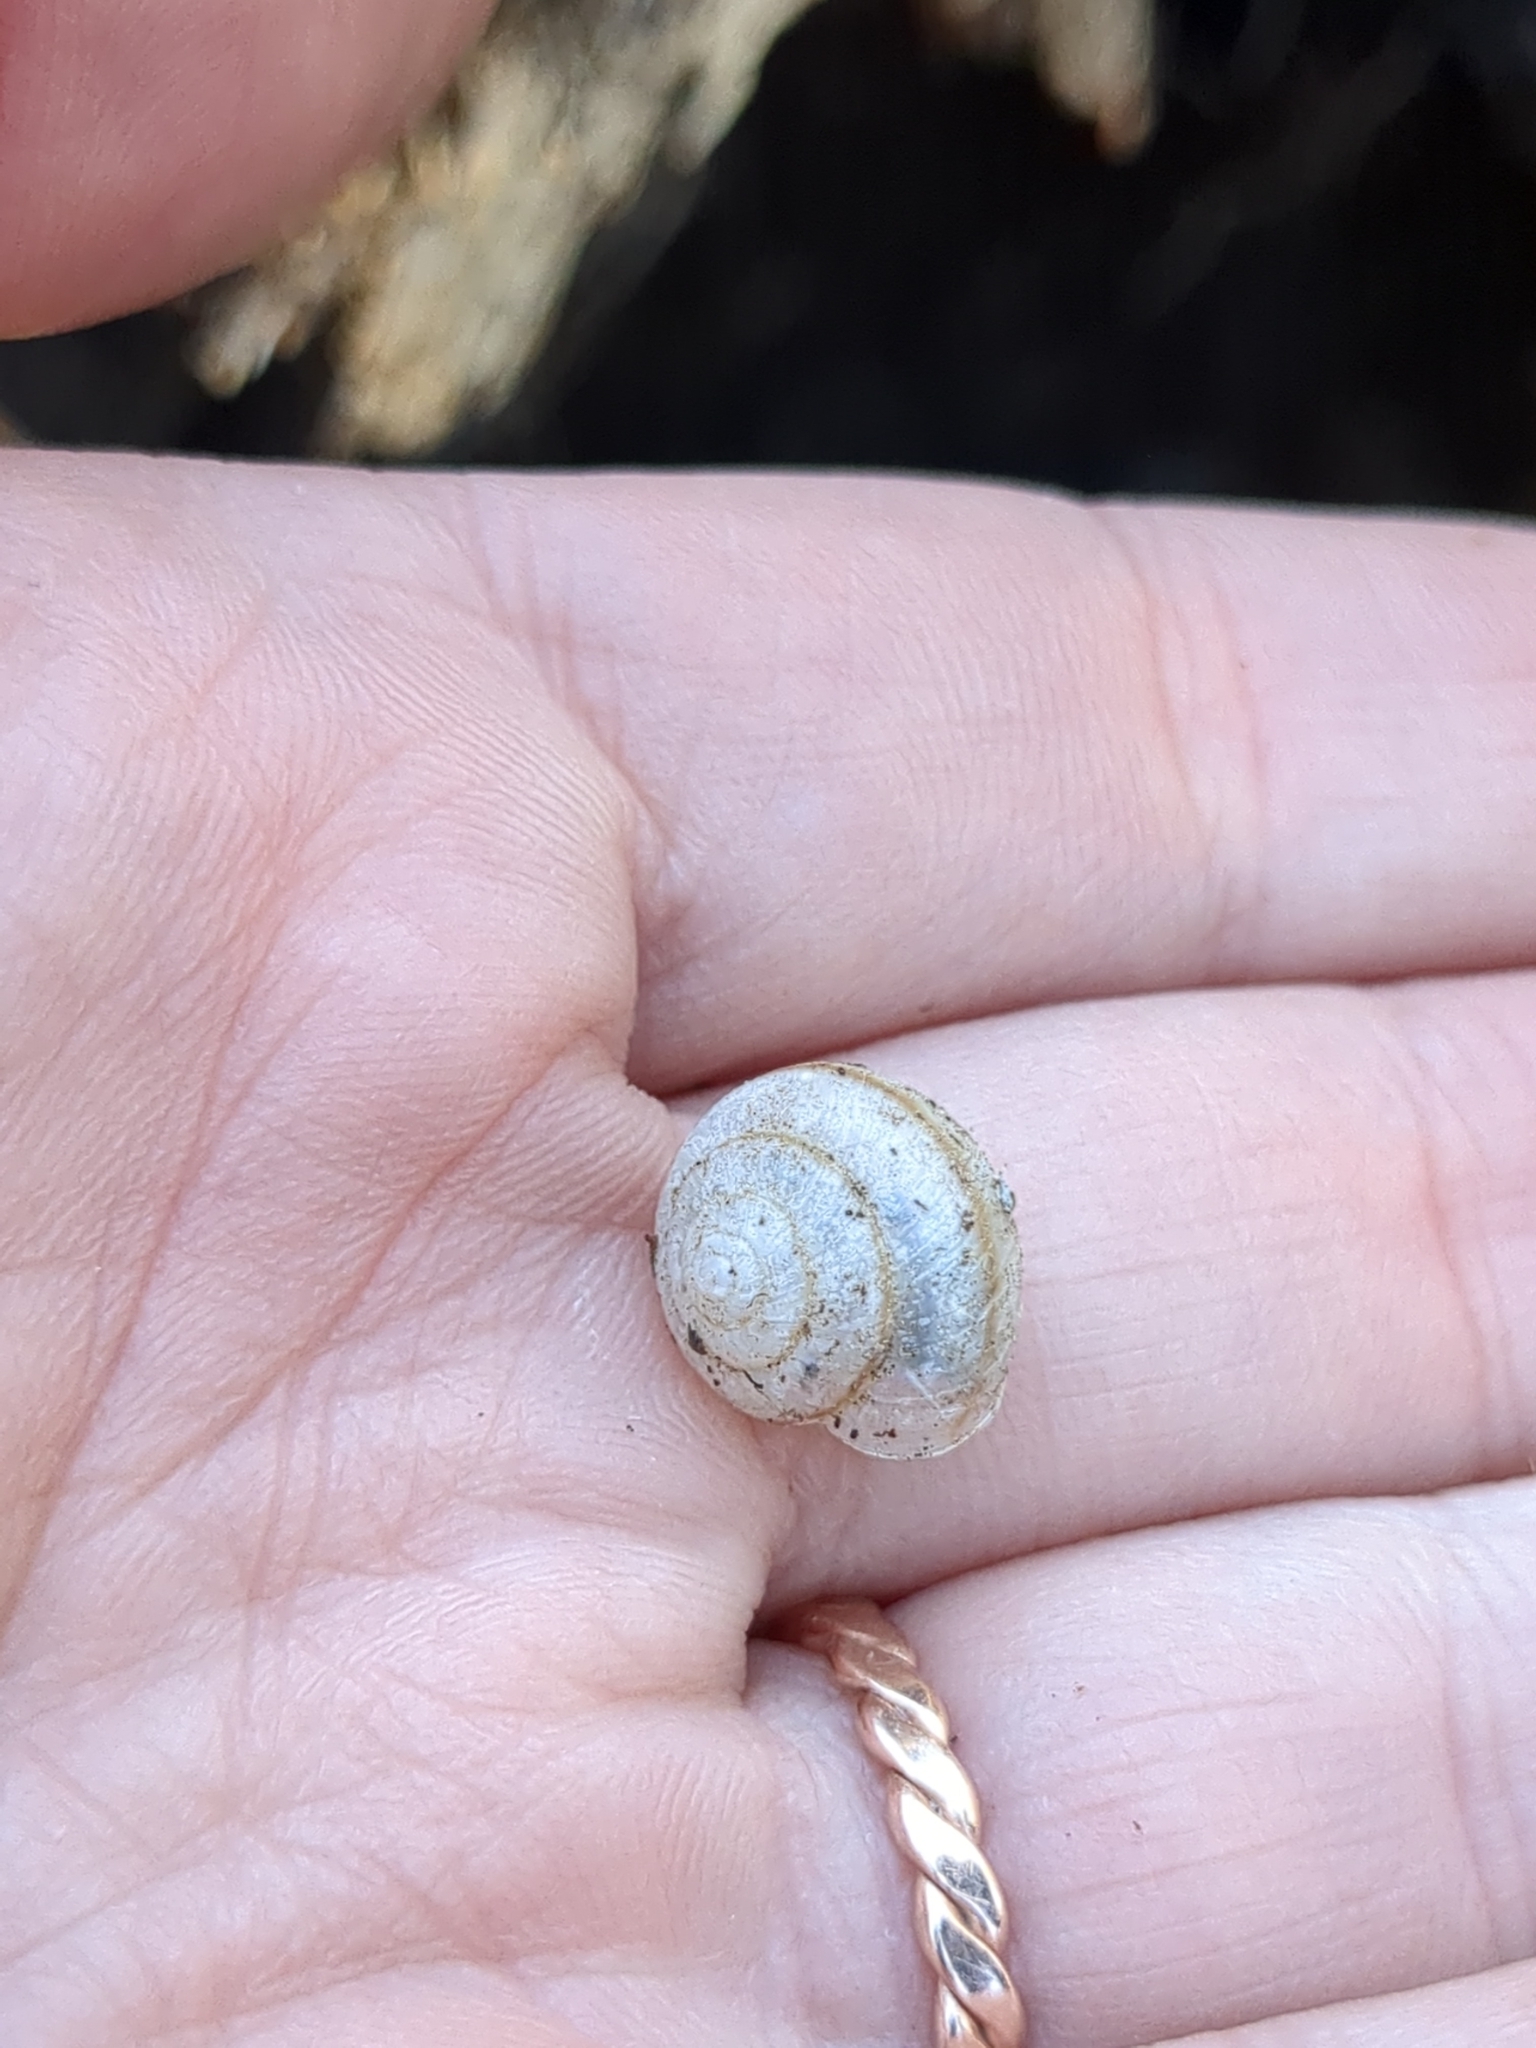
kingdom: Animalia
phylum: Mollusca
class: Gastropoda
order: Stylommatophora
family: Camaenidae
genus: Bradybaena
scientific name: Bradybaena similaris
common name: Asian trampsnail
